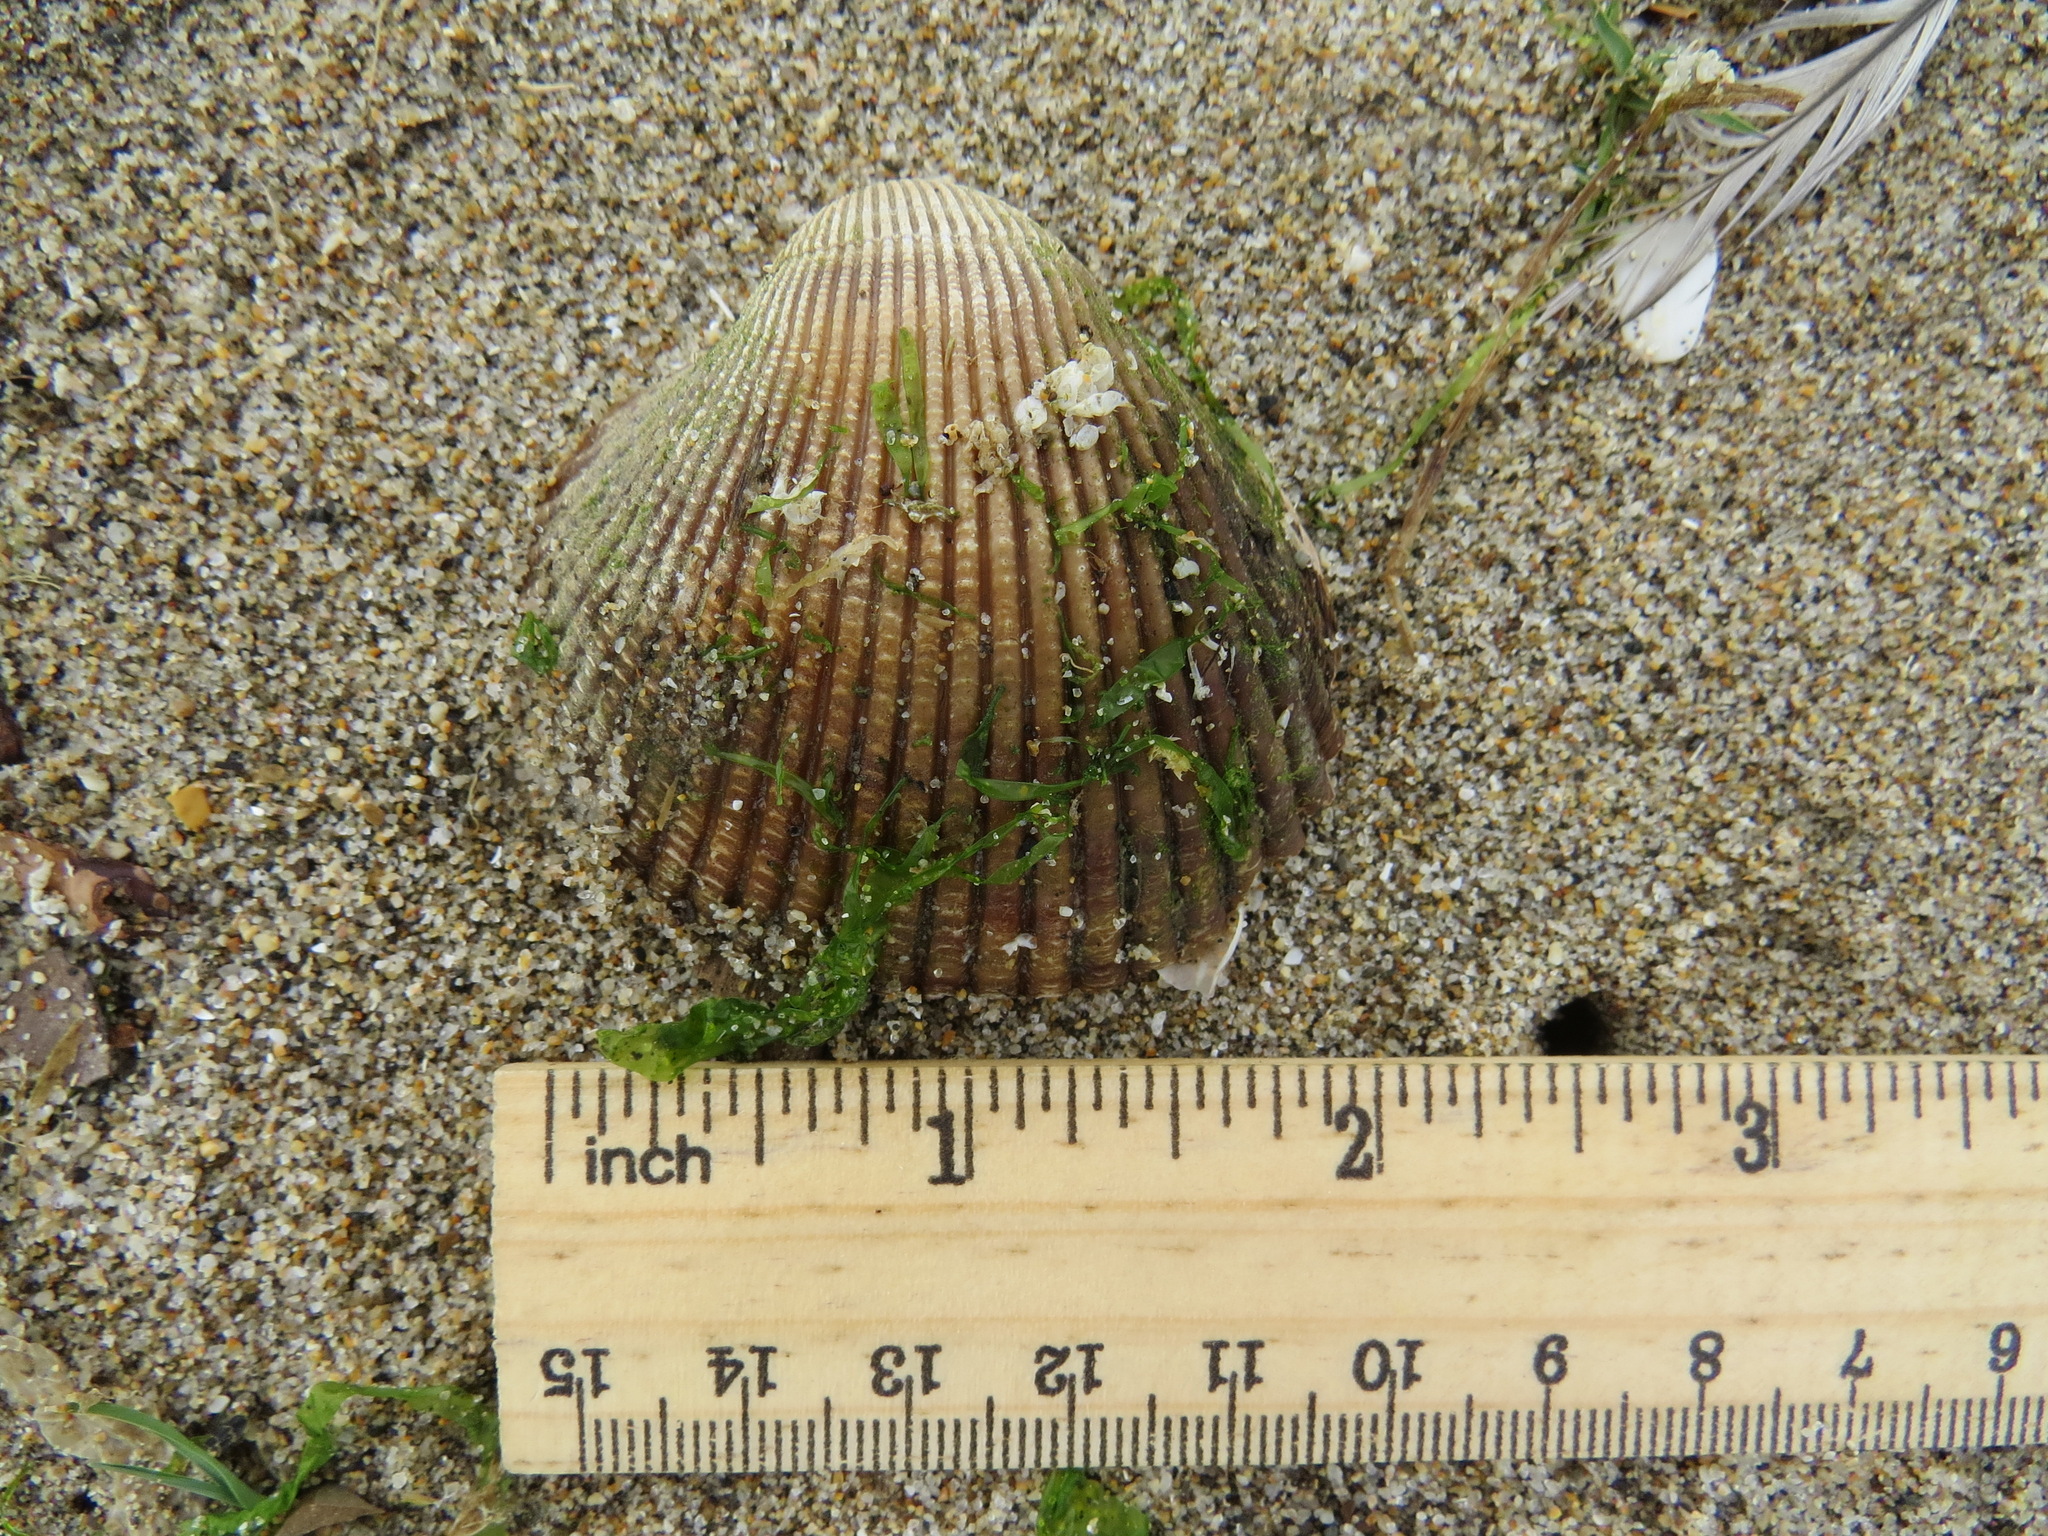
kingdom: Animalia
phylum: Mollusca
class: Bivalvia
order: Cardiida
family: Cardiidae
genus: Clinocardium
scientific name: Clinocardium nuttallii
